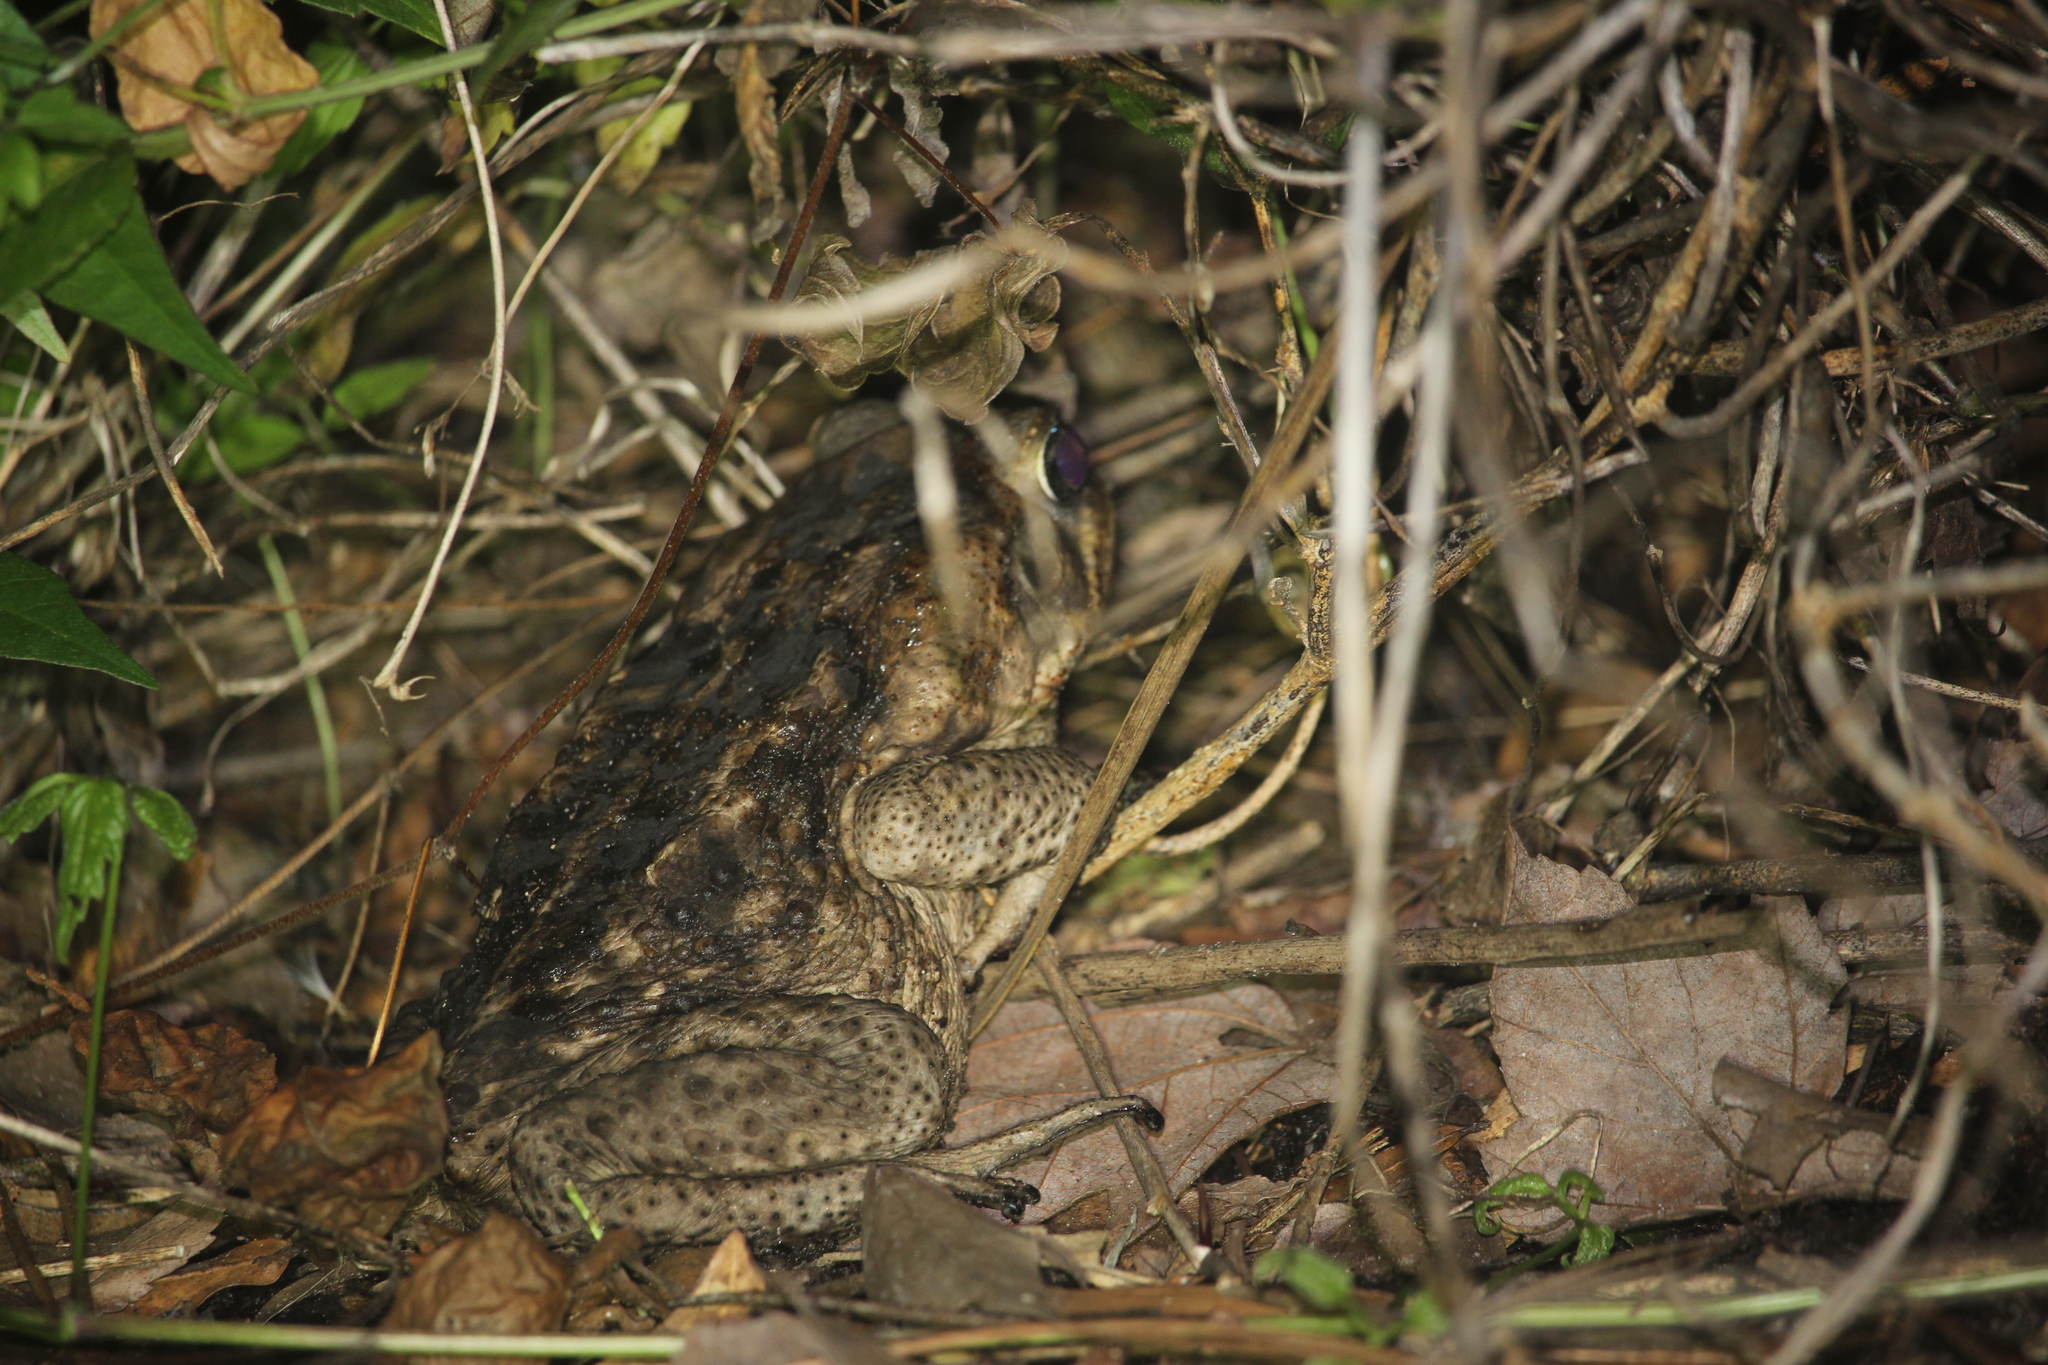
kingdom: Animalia
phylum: Chordata
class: Amphibia
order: Anura
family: Bufonidae
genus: Rhinella
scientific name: Rhinella marina
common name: Cane toad
